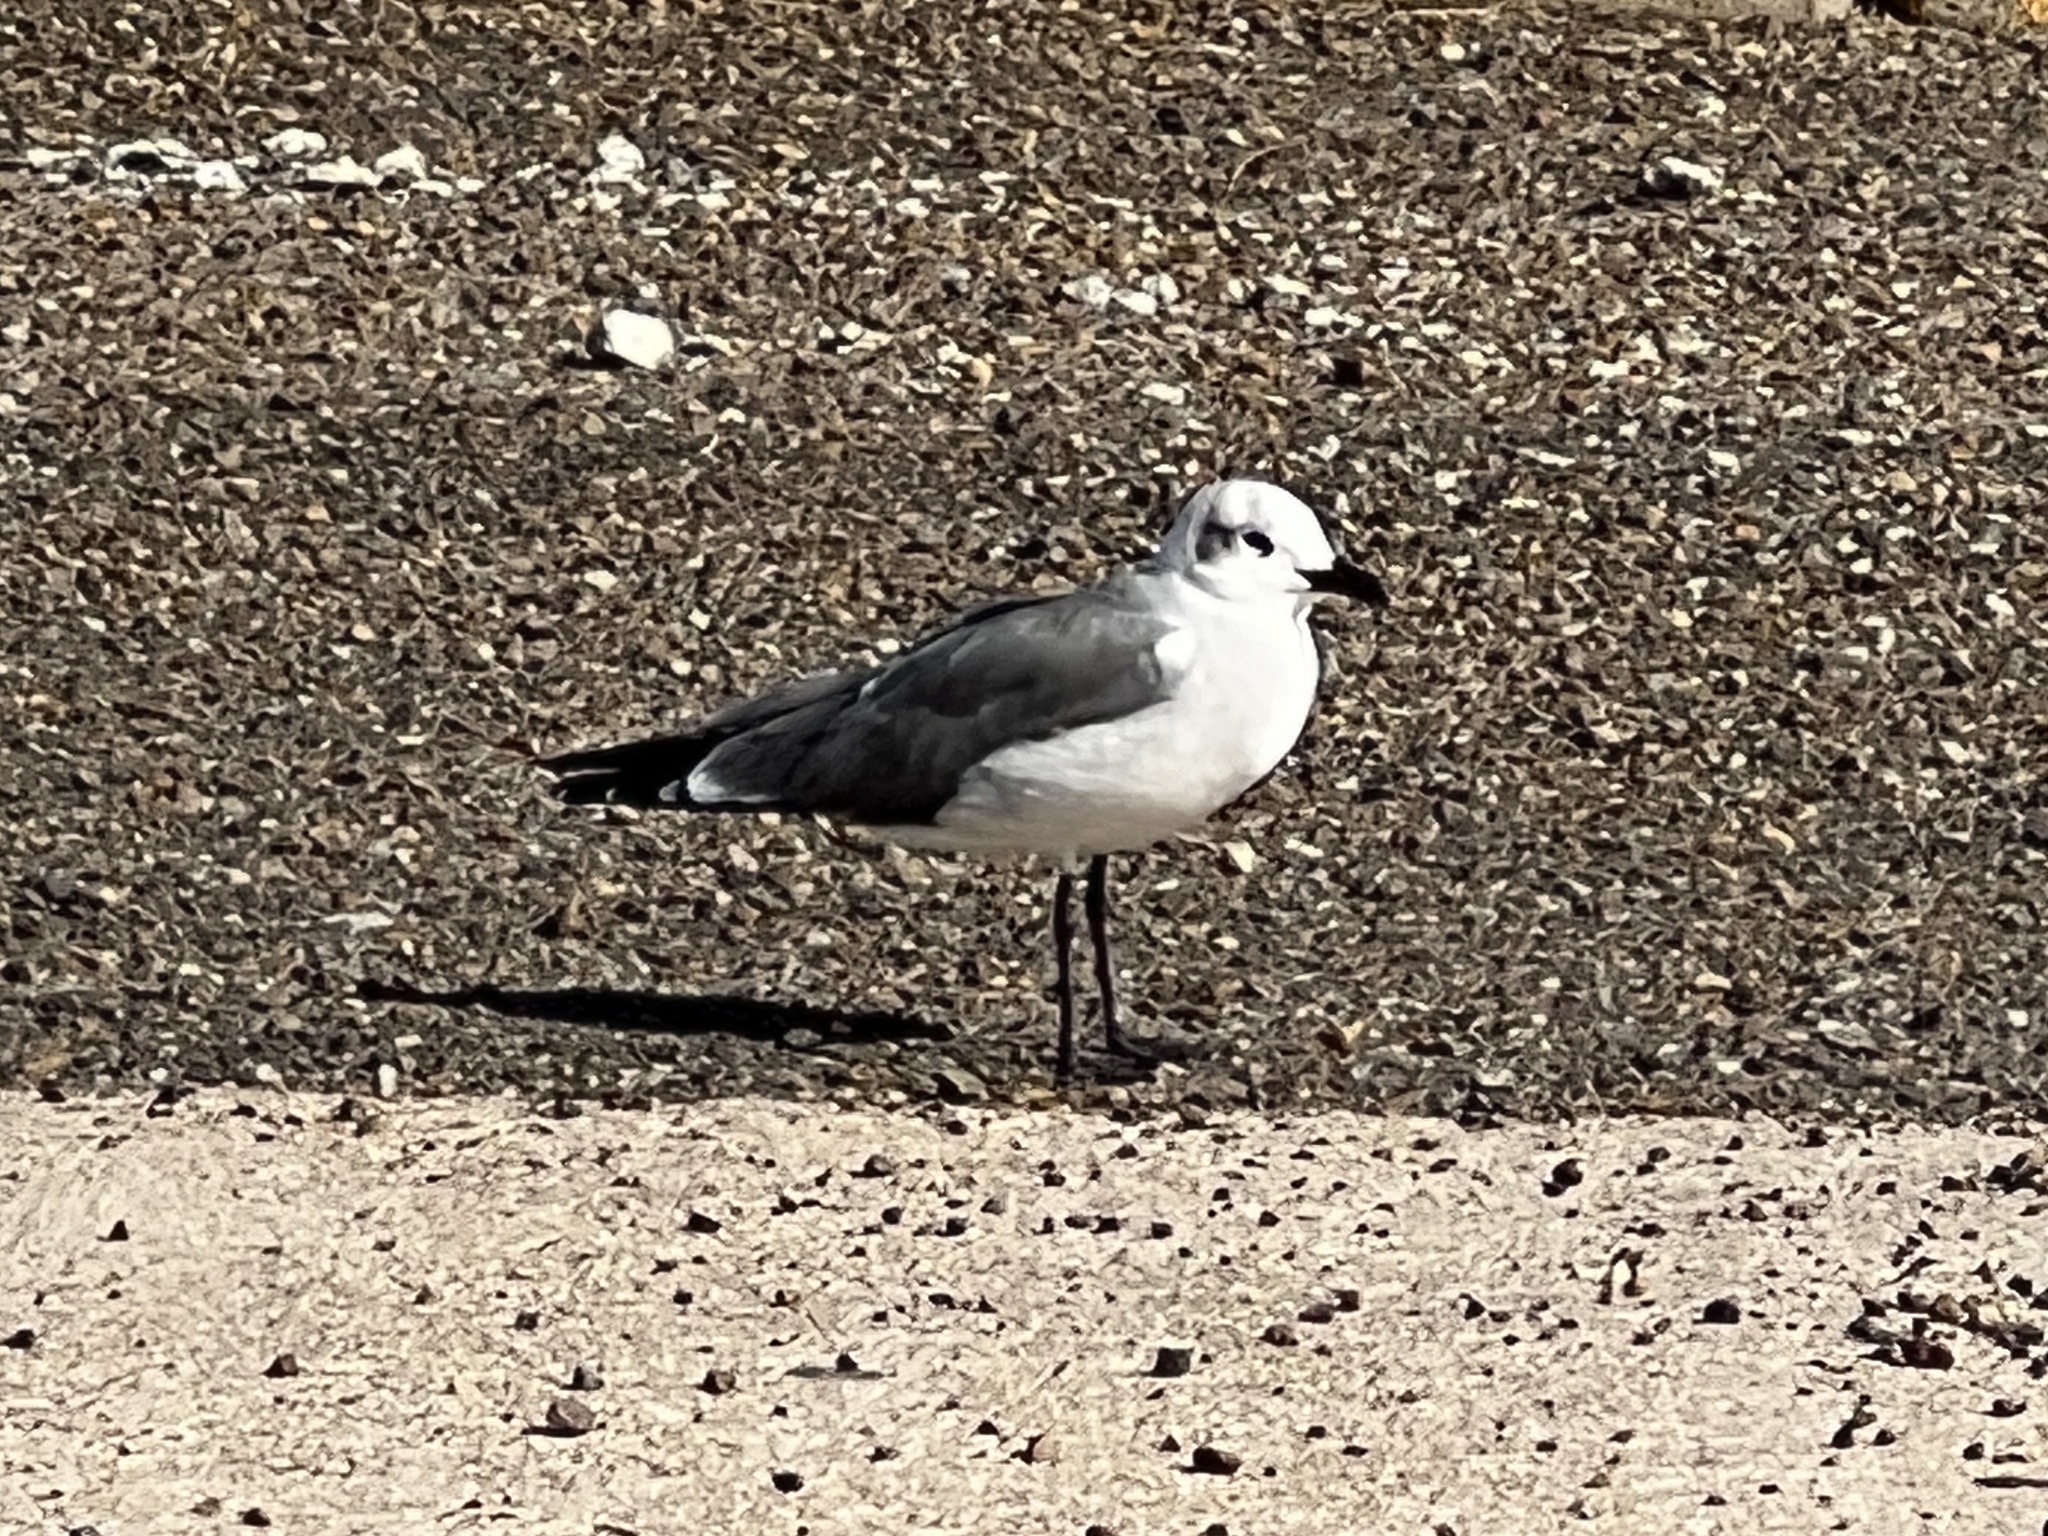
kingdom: Animalia
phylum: Chordata
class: Aves
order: Charadriiformes
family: Laridae
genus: Leucophaeus
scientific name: Leucophaeus atricilla
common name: Laughing gull
